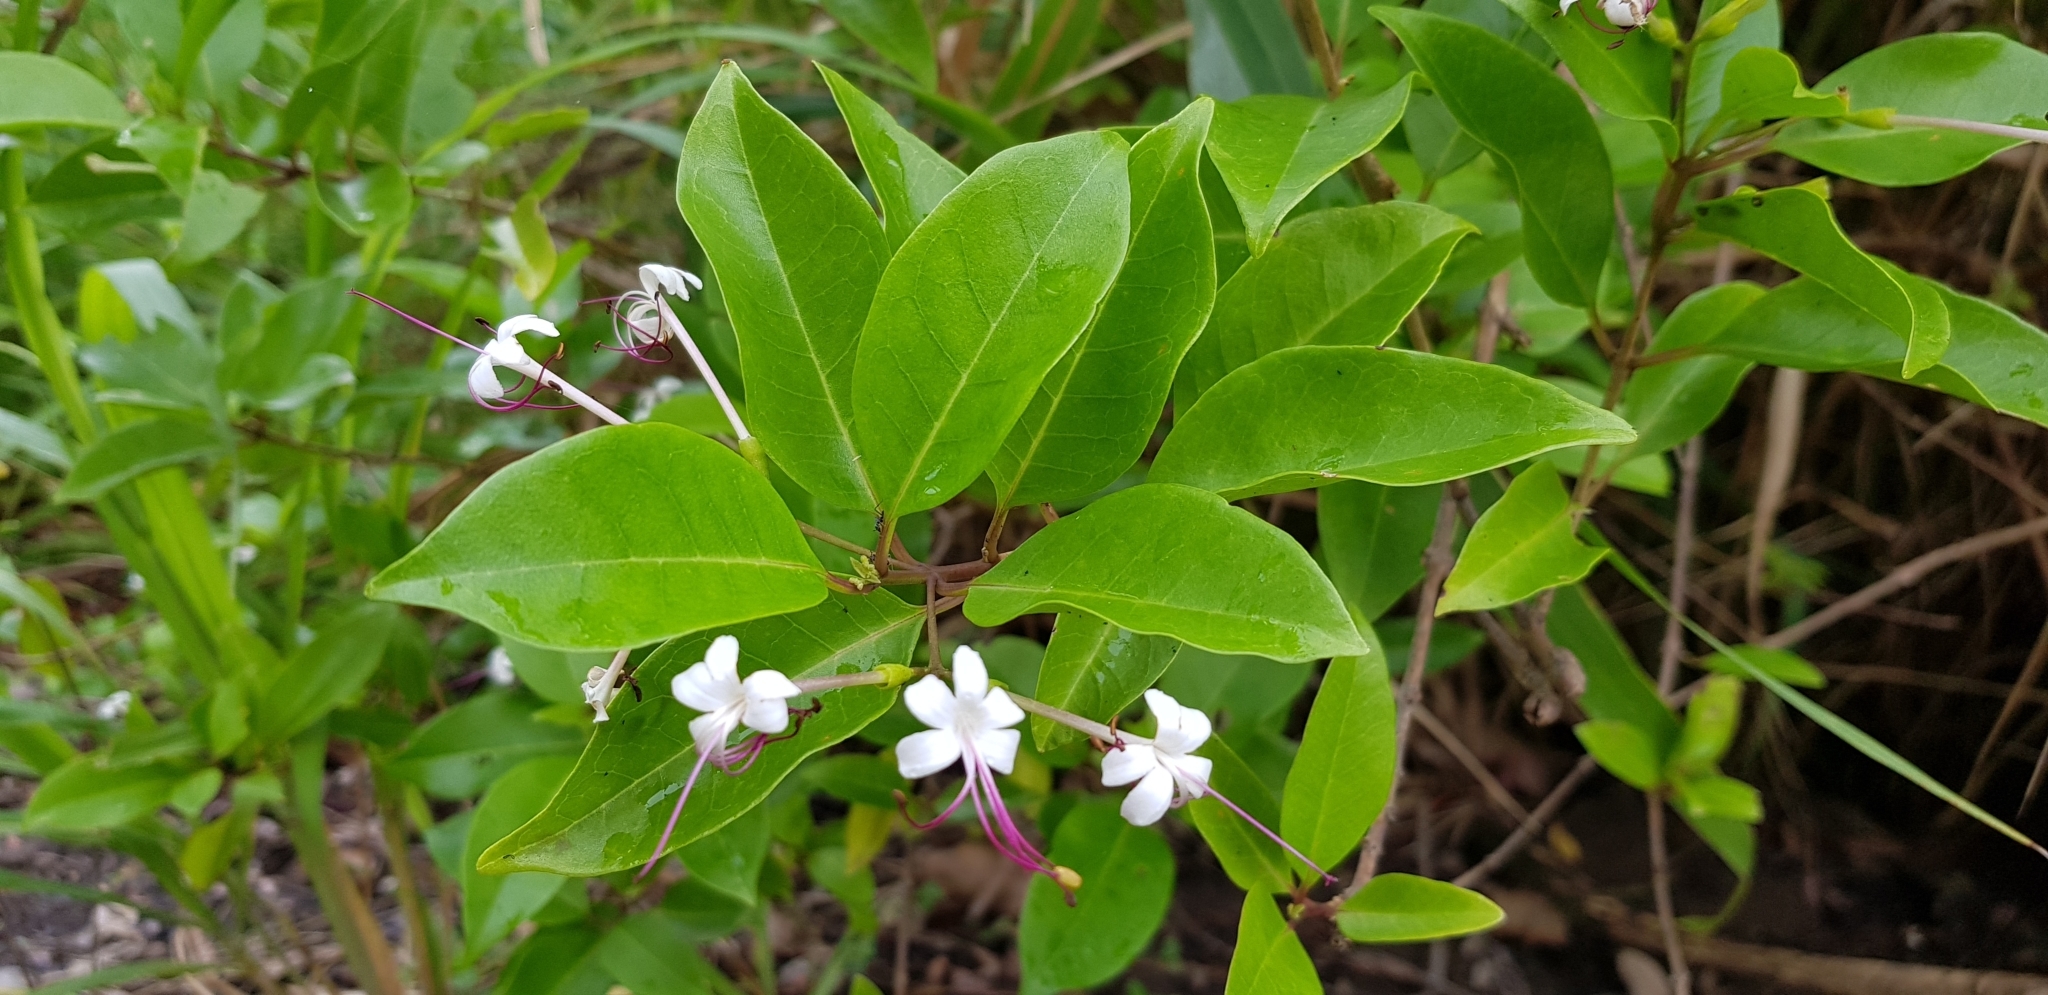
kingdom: Plantae
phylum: Tracheophyta
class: Magnoliopsida
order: Lamiales
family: Lamiaceae
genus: Volkameria
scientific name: Volkameria inermis
